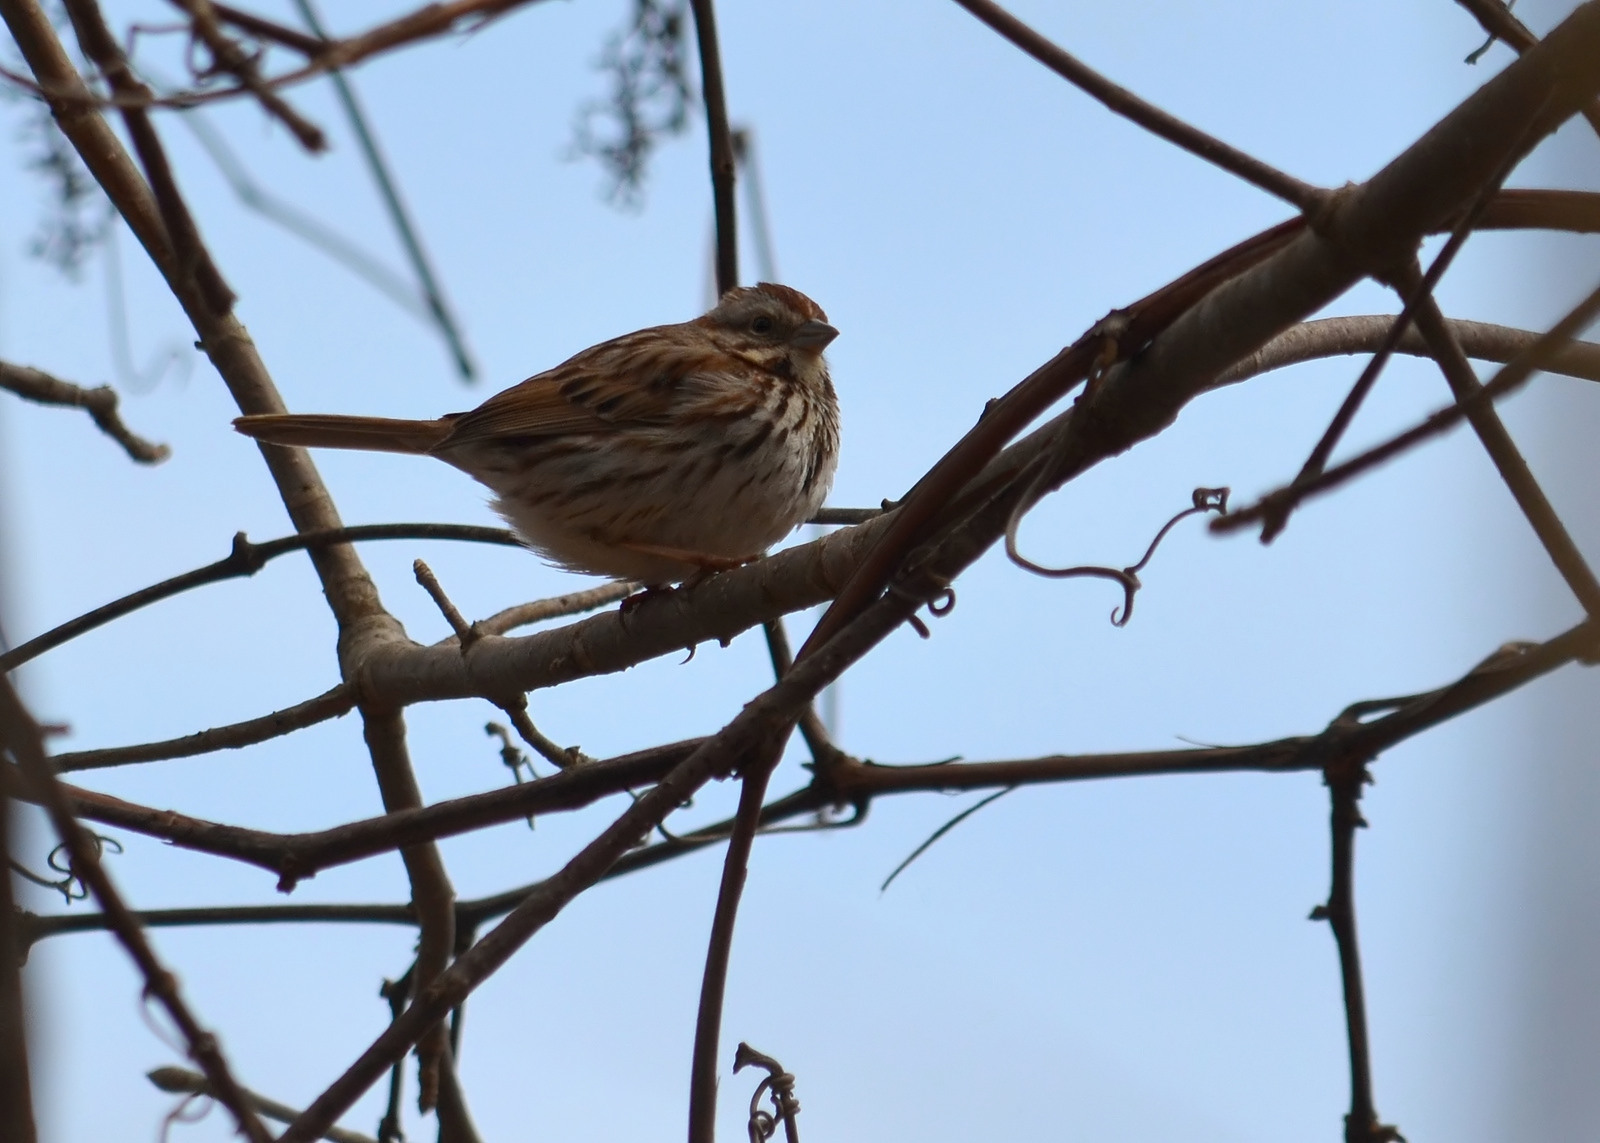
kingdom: Animalia
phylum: Chordata
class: Aves
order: Passeriformes
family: Passerellidae
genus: Melospiza
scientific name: Melospiza melodia
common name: Song sparrow
